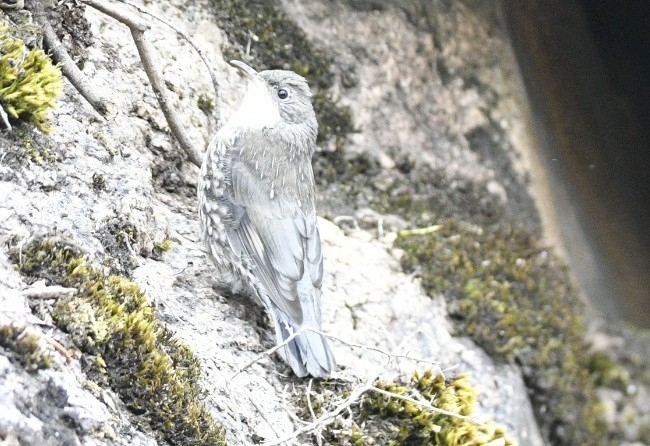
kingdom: Animalia
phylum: Chordata
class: Aves
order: Passeriformes
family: Climacteridae
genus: Cormobates
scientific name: Cormobates leucophaea
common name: White-throated treecreeper
